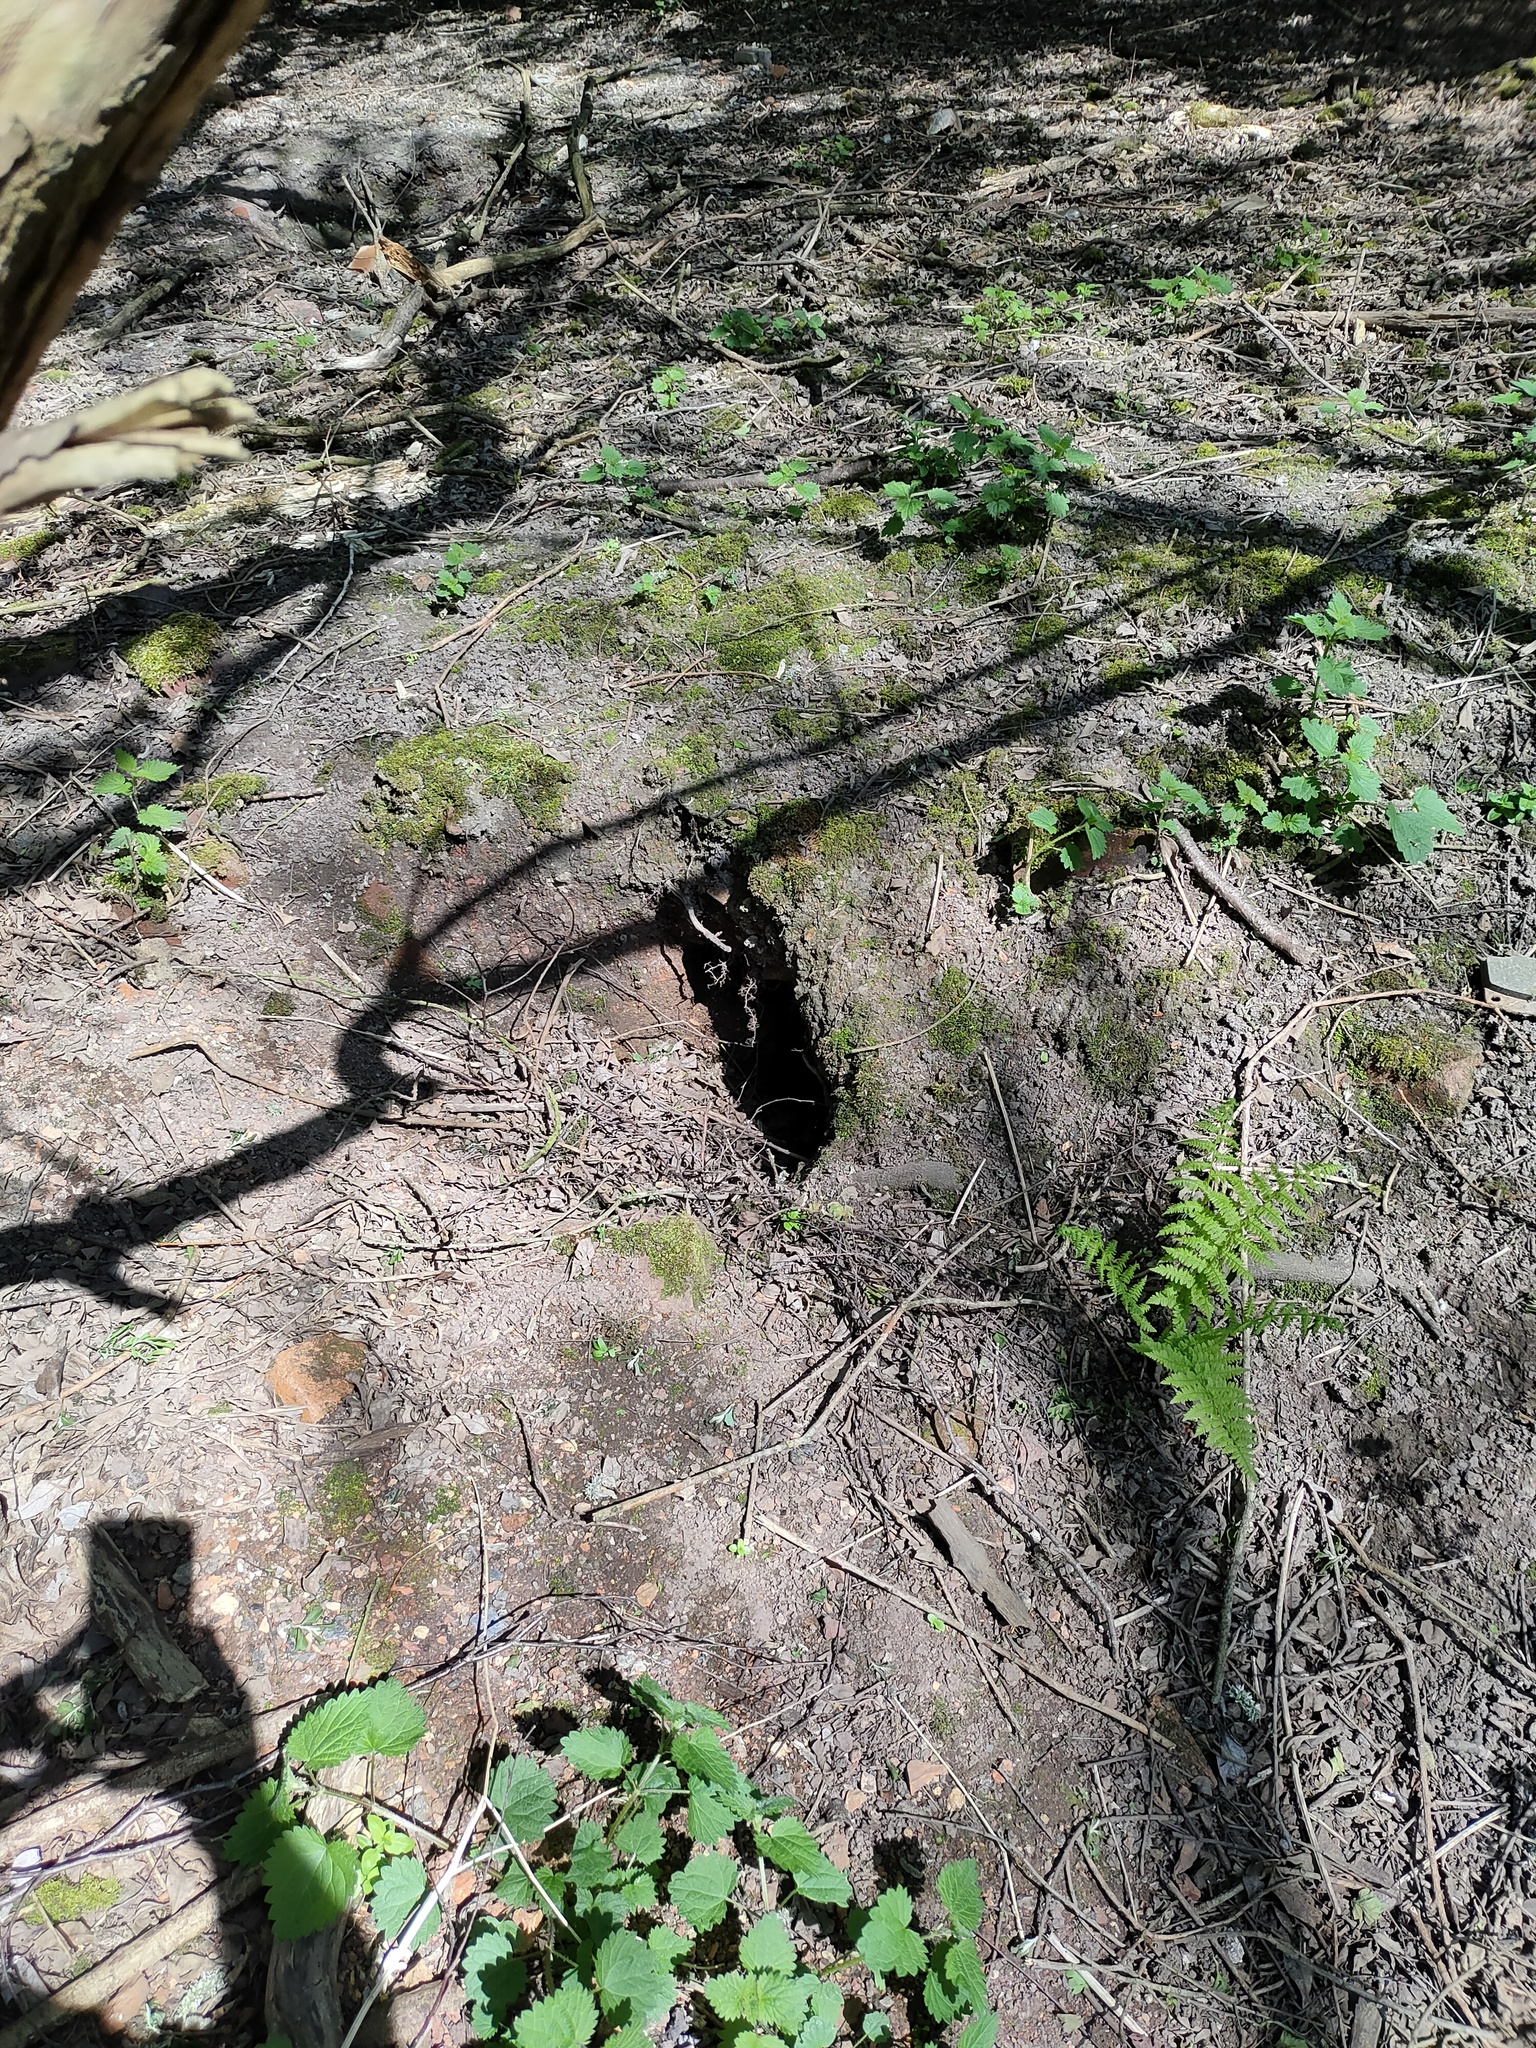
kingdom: Animalia
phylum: Chordata
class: Mammalia
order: Carnivora
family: Mustelidae
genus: Meles
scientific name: Meles meles
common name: Eurasian badger
